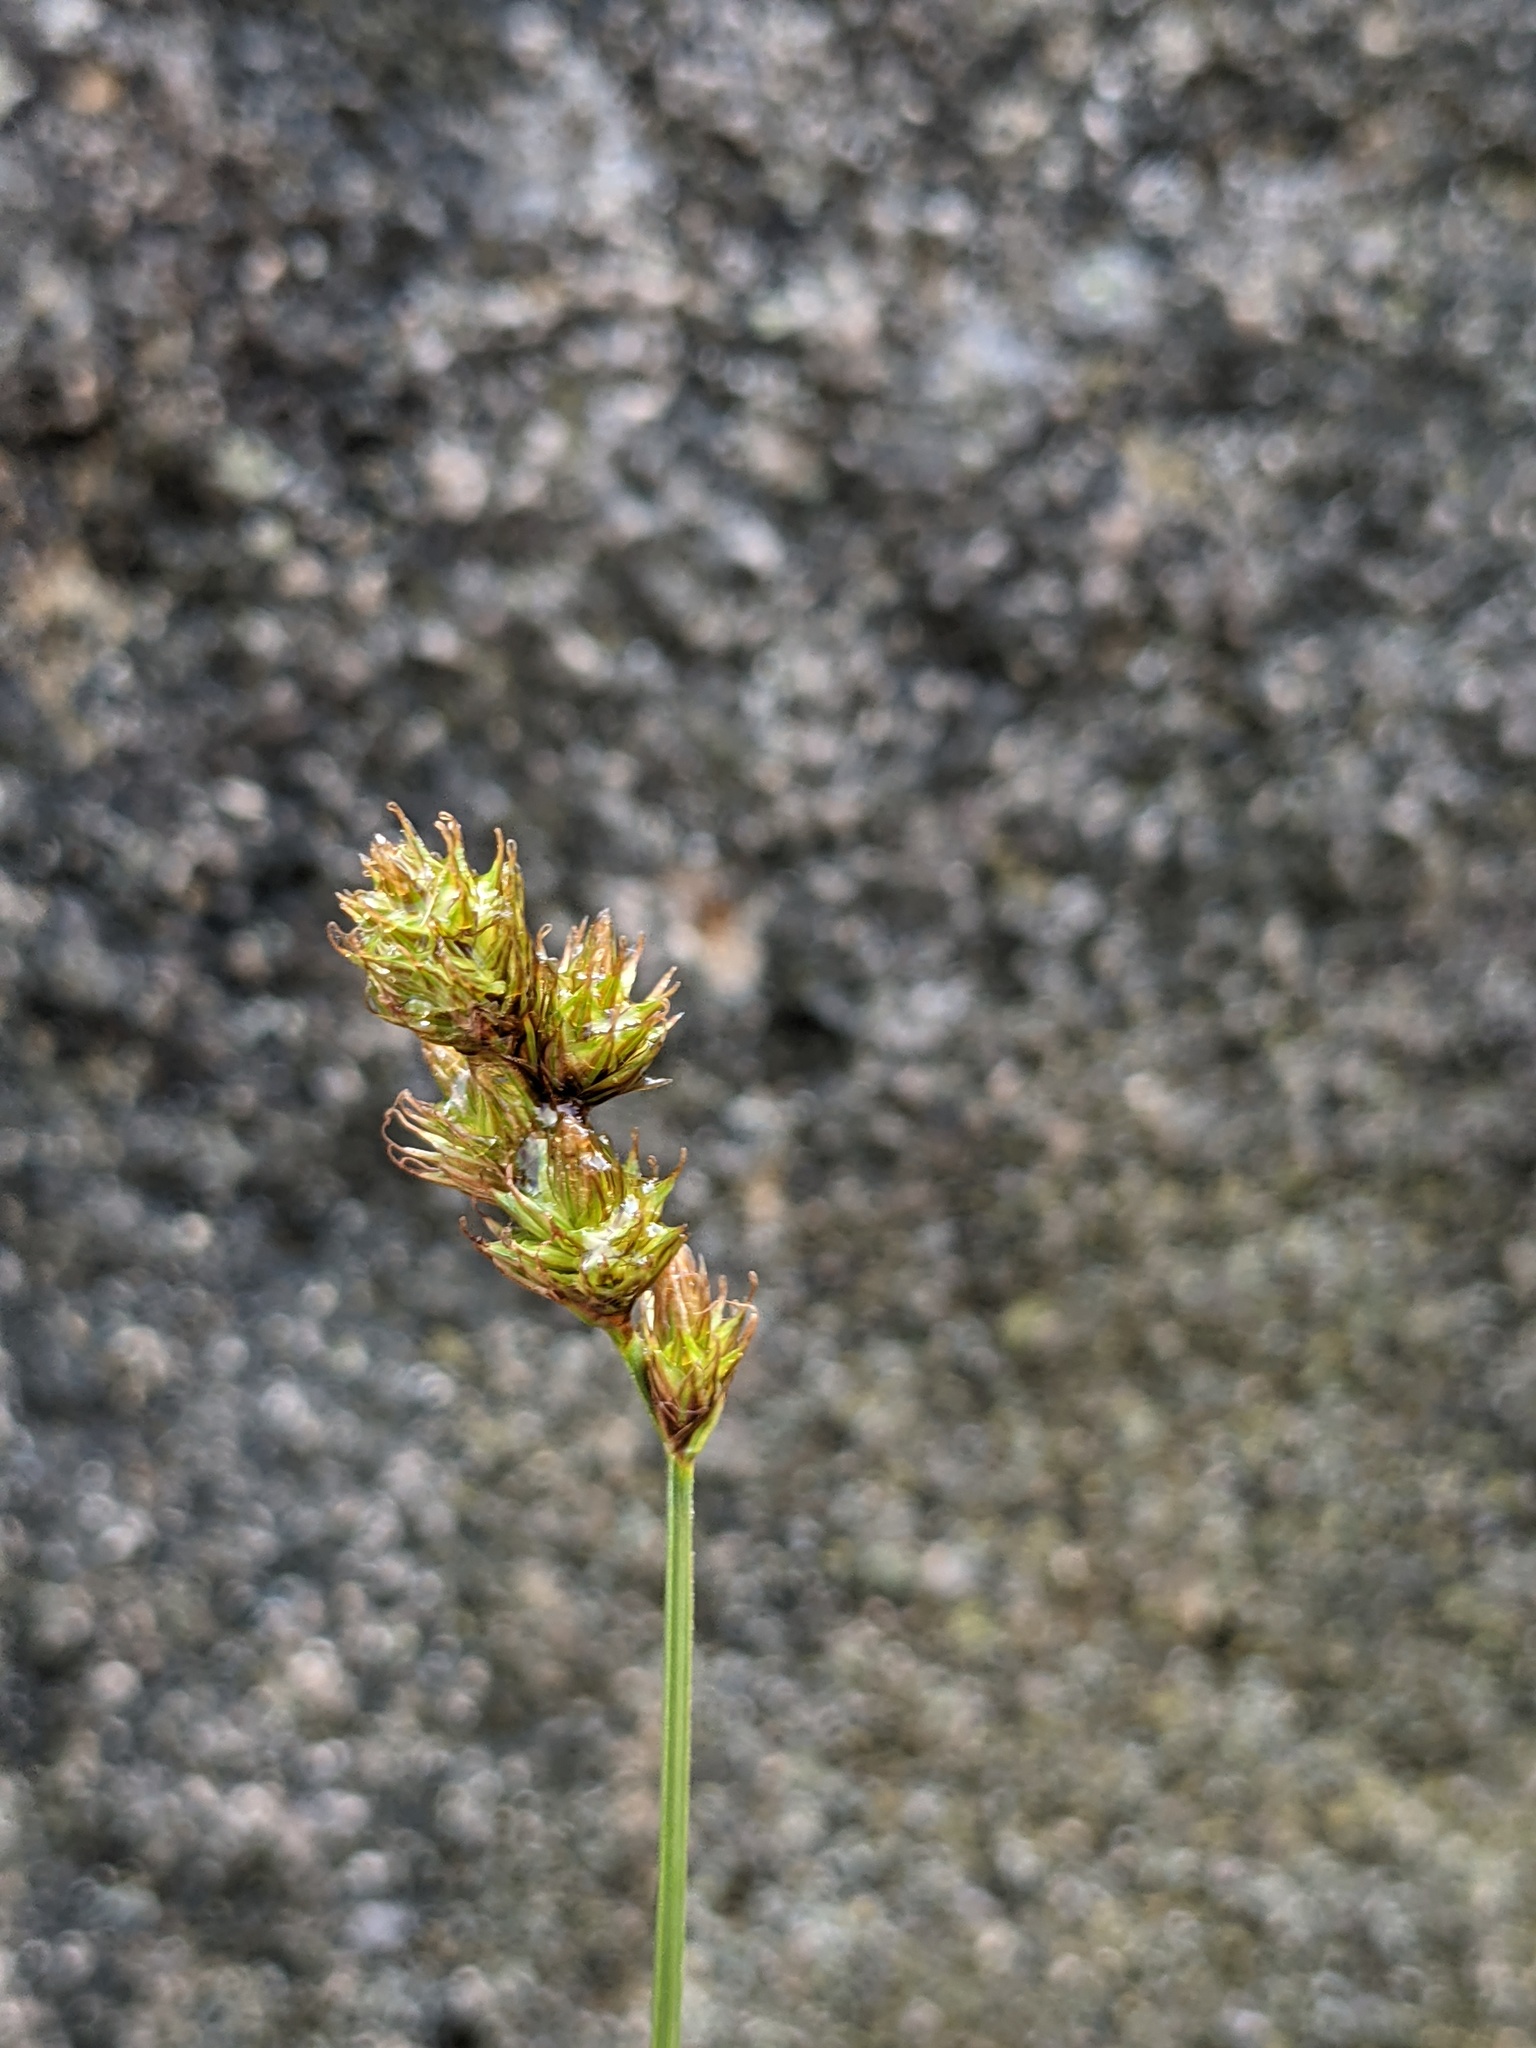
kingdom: Plantae
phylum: Tracheophyta
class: Liliopsida
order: Poales
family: Cyperaceae
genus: Carex
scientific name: Carex leporina
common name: Oval sedge
